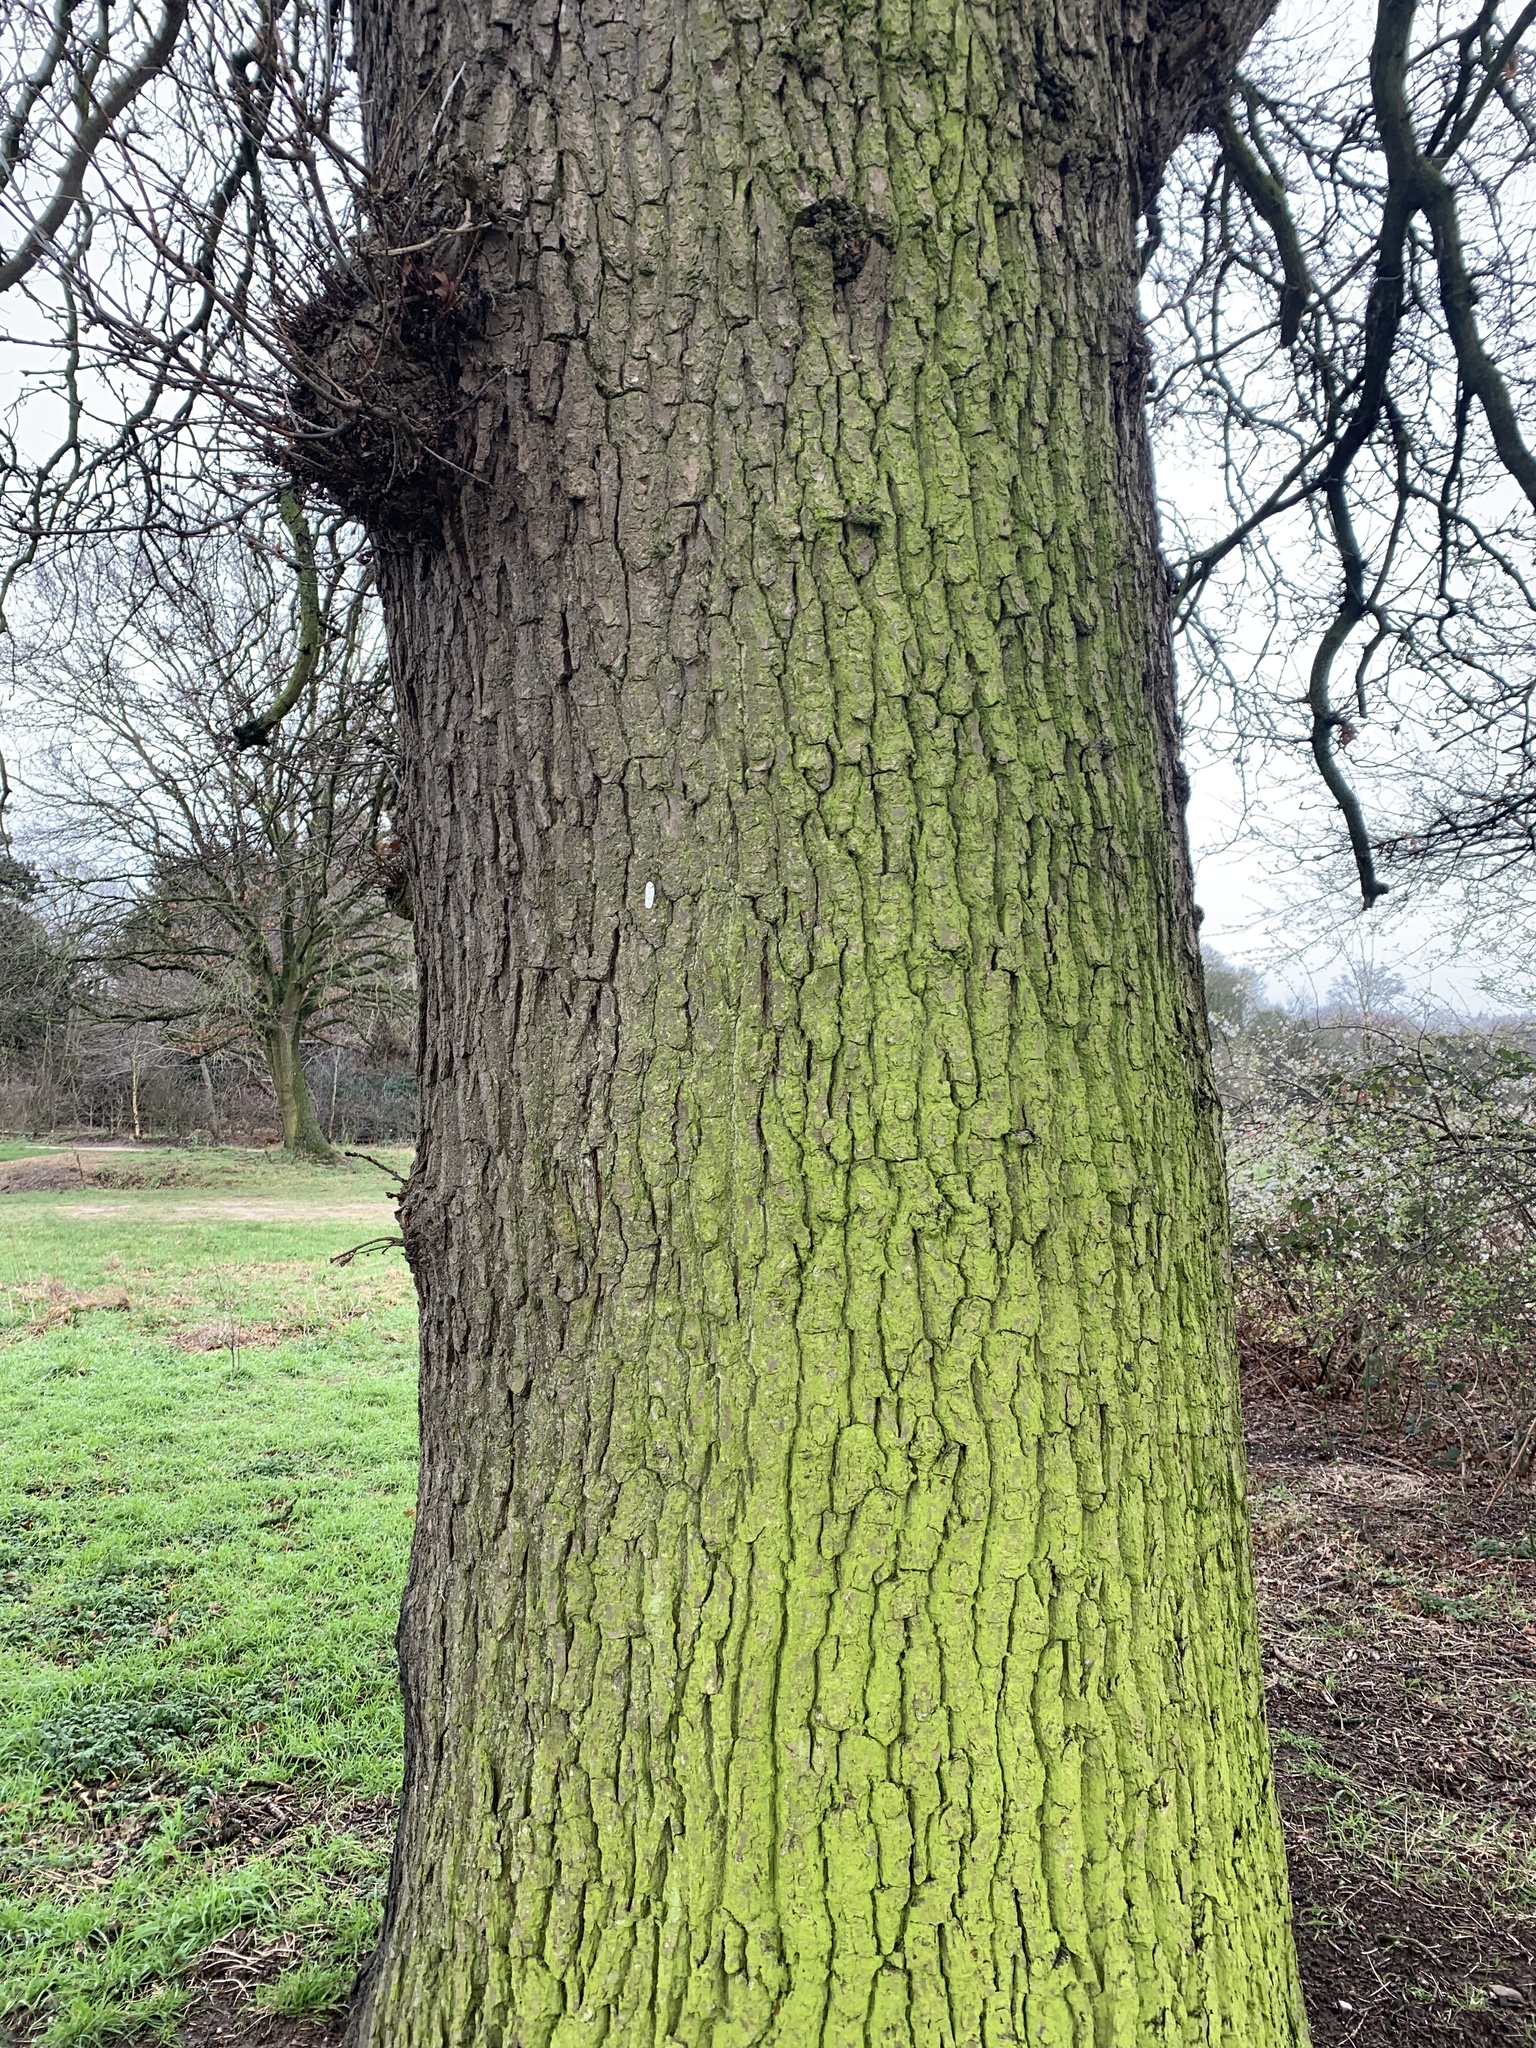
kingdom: Plantae
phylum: Tracheophyta
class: Magnoliopsida
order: Fagales
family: Fagaceae
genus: Castanea
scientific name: Castanea sativa
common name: Sweet chestnut
